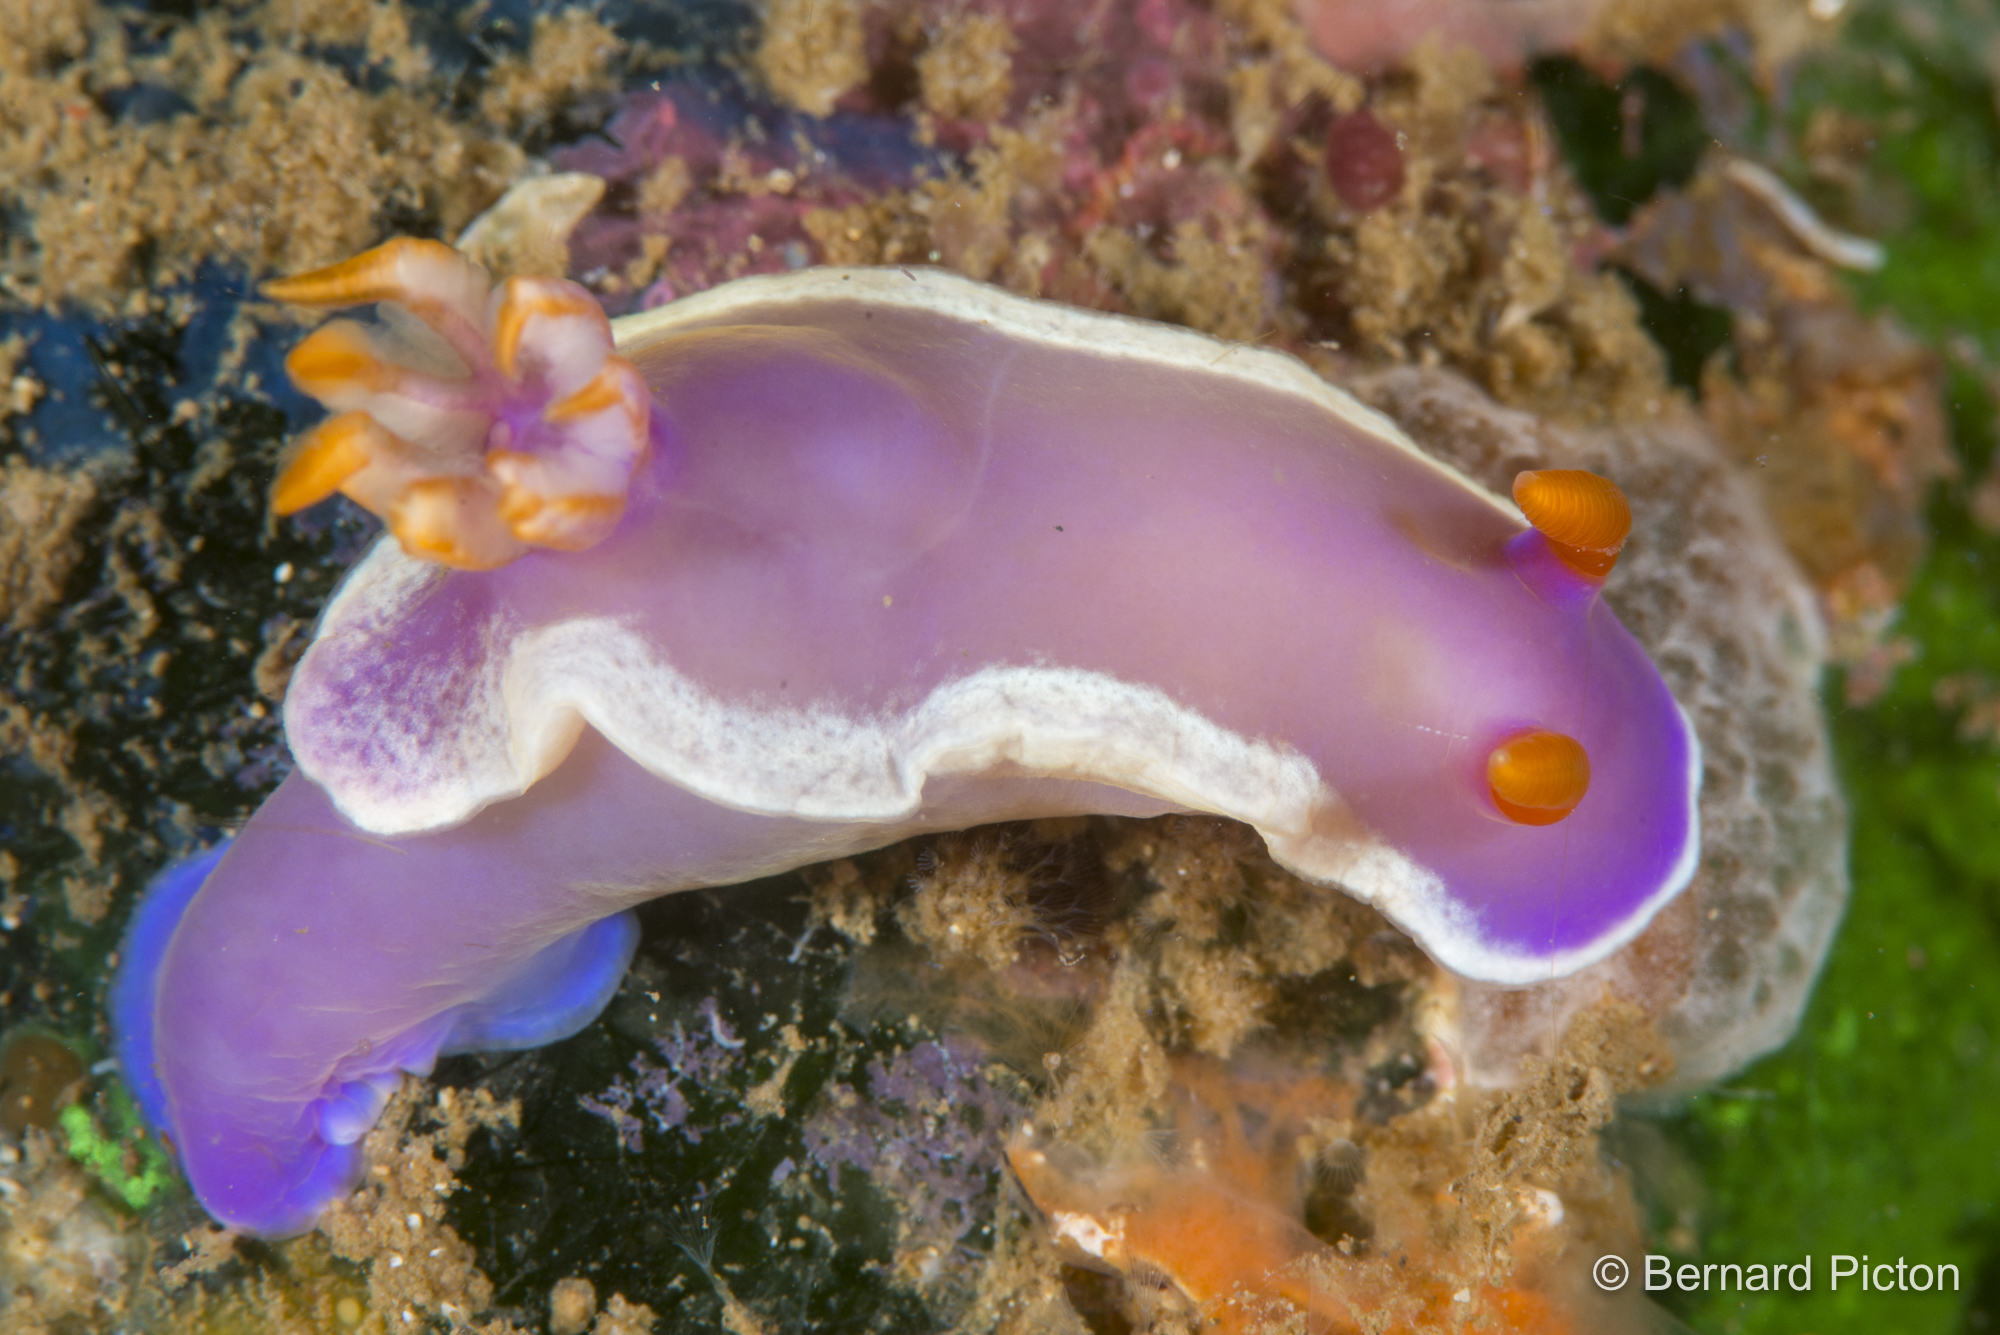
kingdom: Animalia
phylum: Mollusca
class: Gastropoda
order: Nudibranchia
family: Chromodorididae
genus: Hypselodoris
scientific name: Hypselodoris iba
